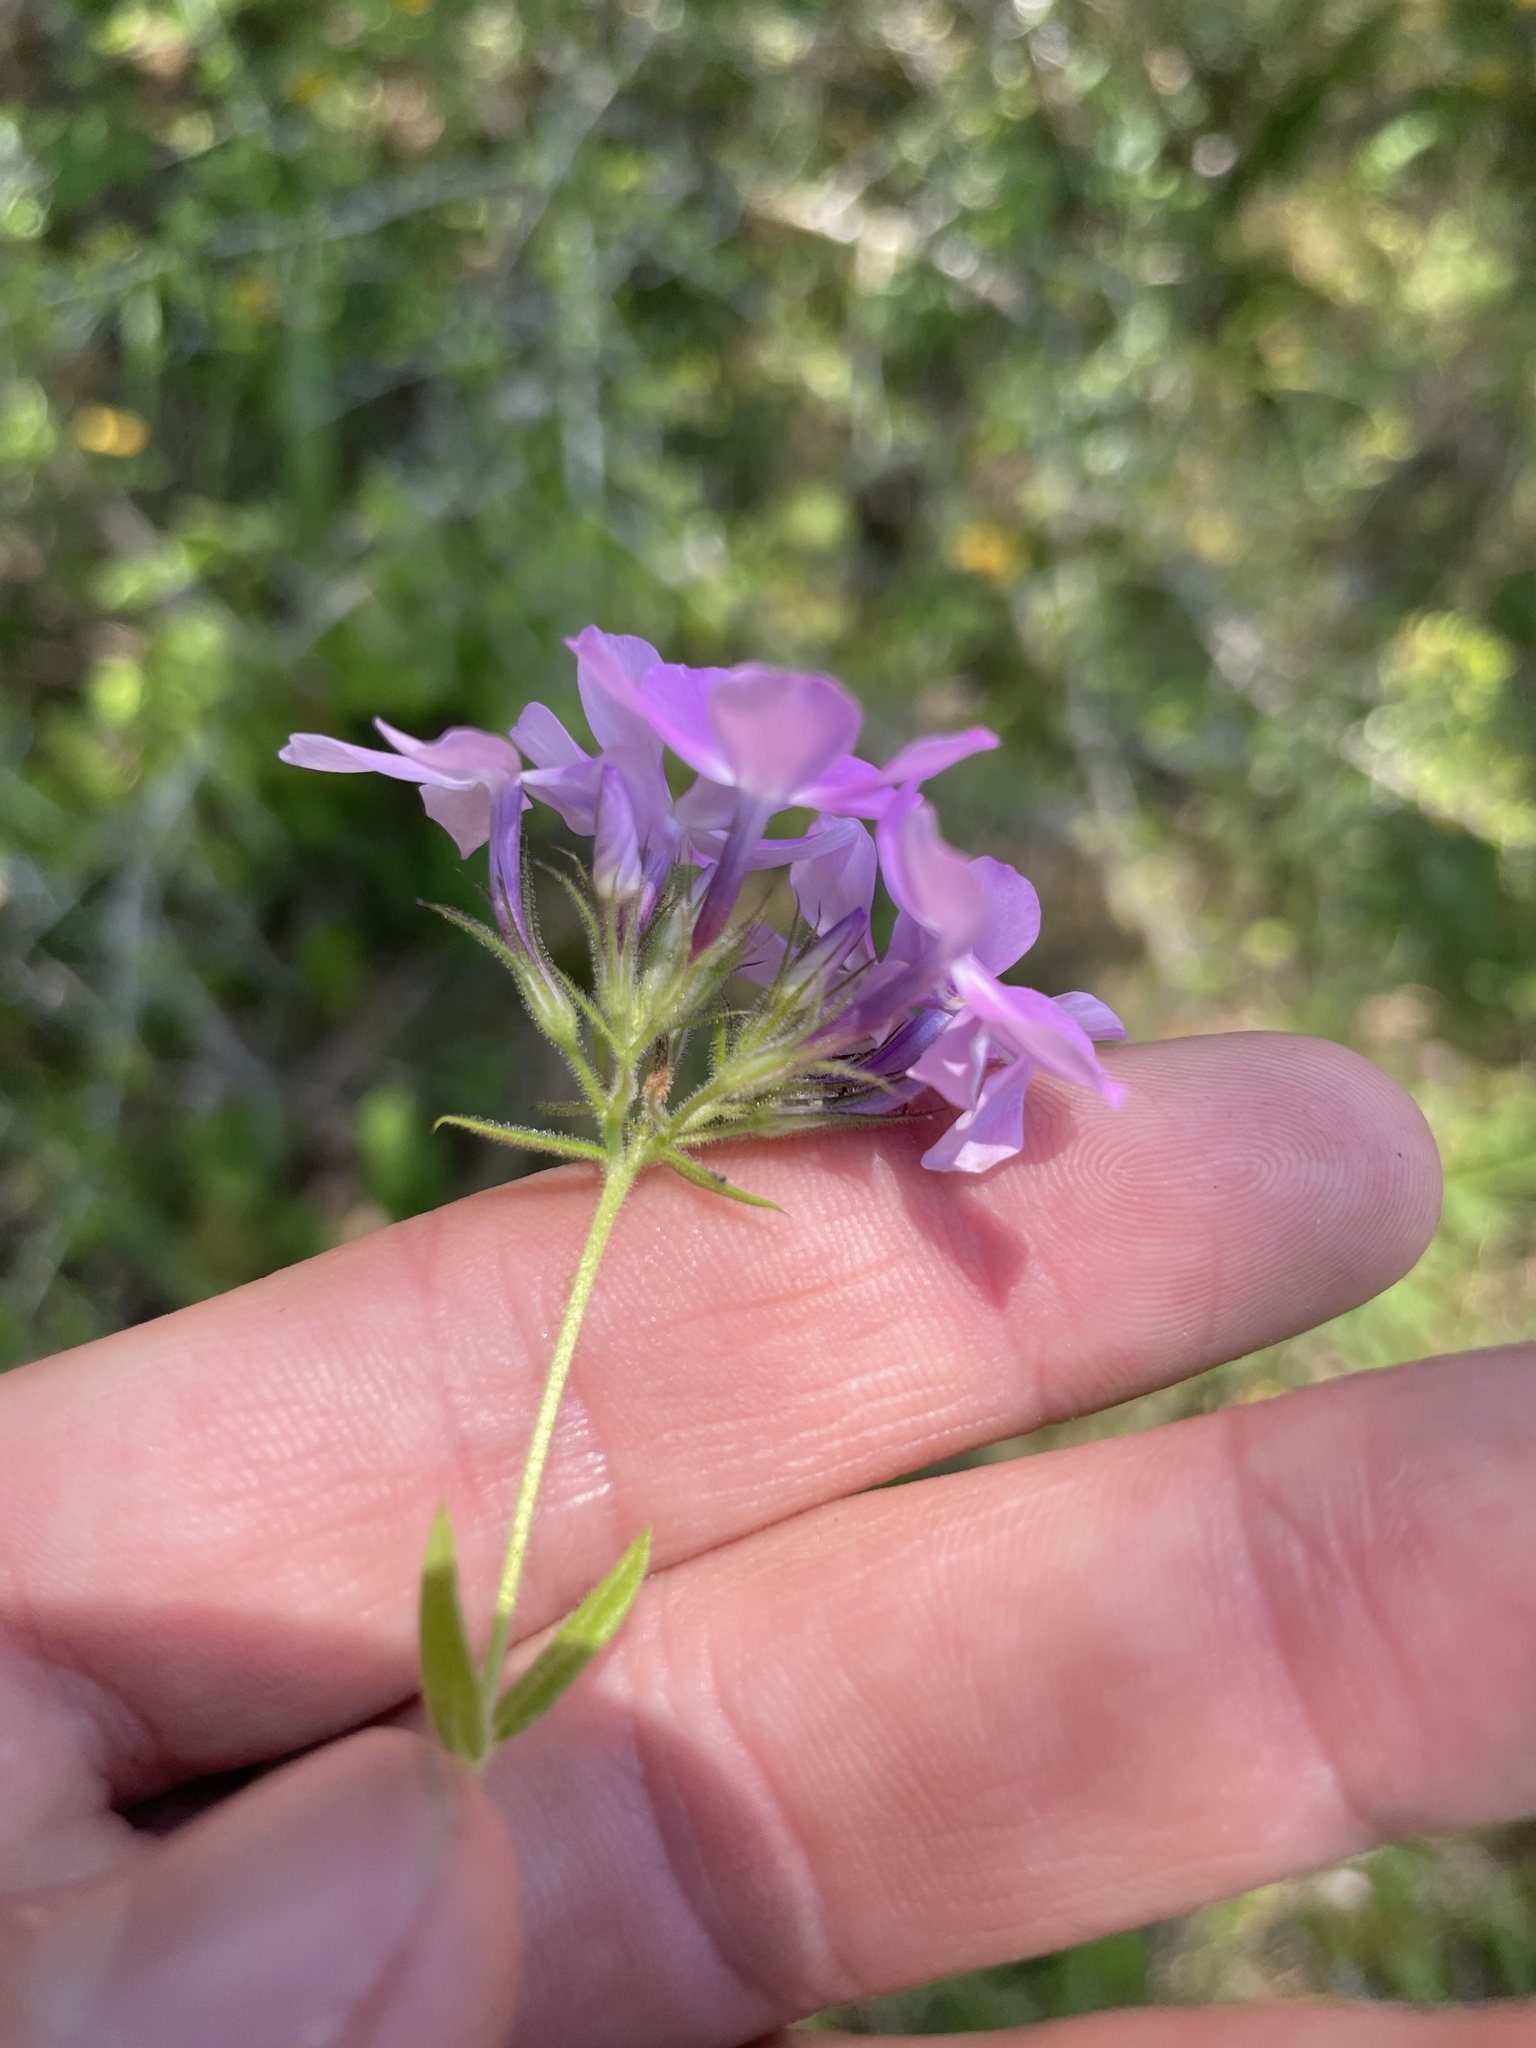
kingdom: Plantae
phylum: Tracheophyta
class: Magnoliopsida
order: Ericales
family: Polemoniaceae
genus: Phlox
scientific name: Phlox pilosa
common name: Prairie phlox
